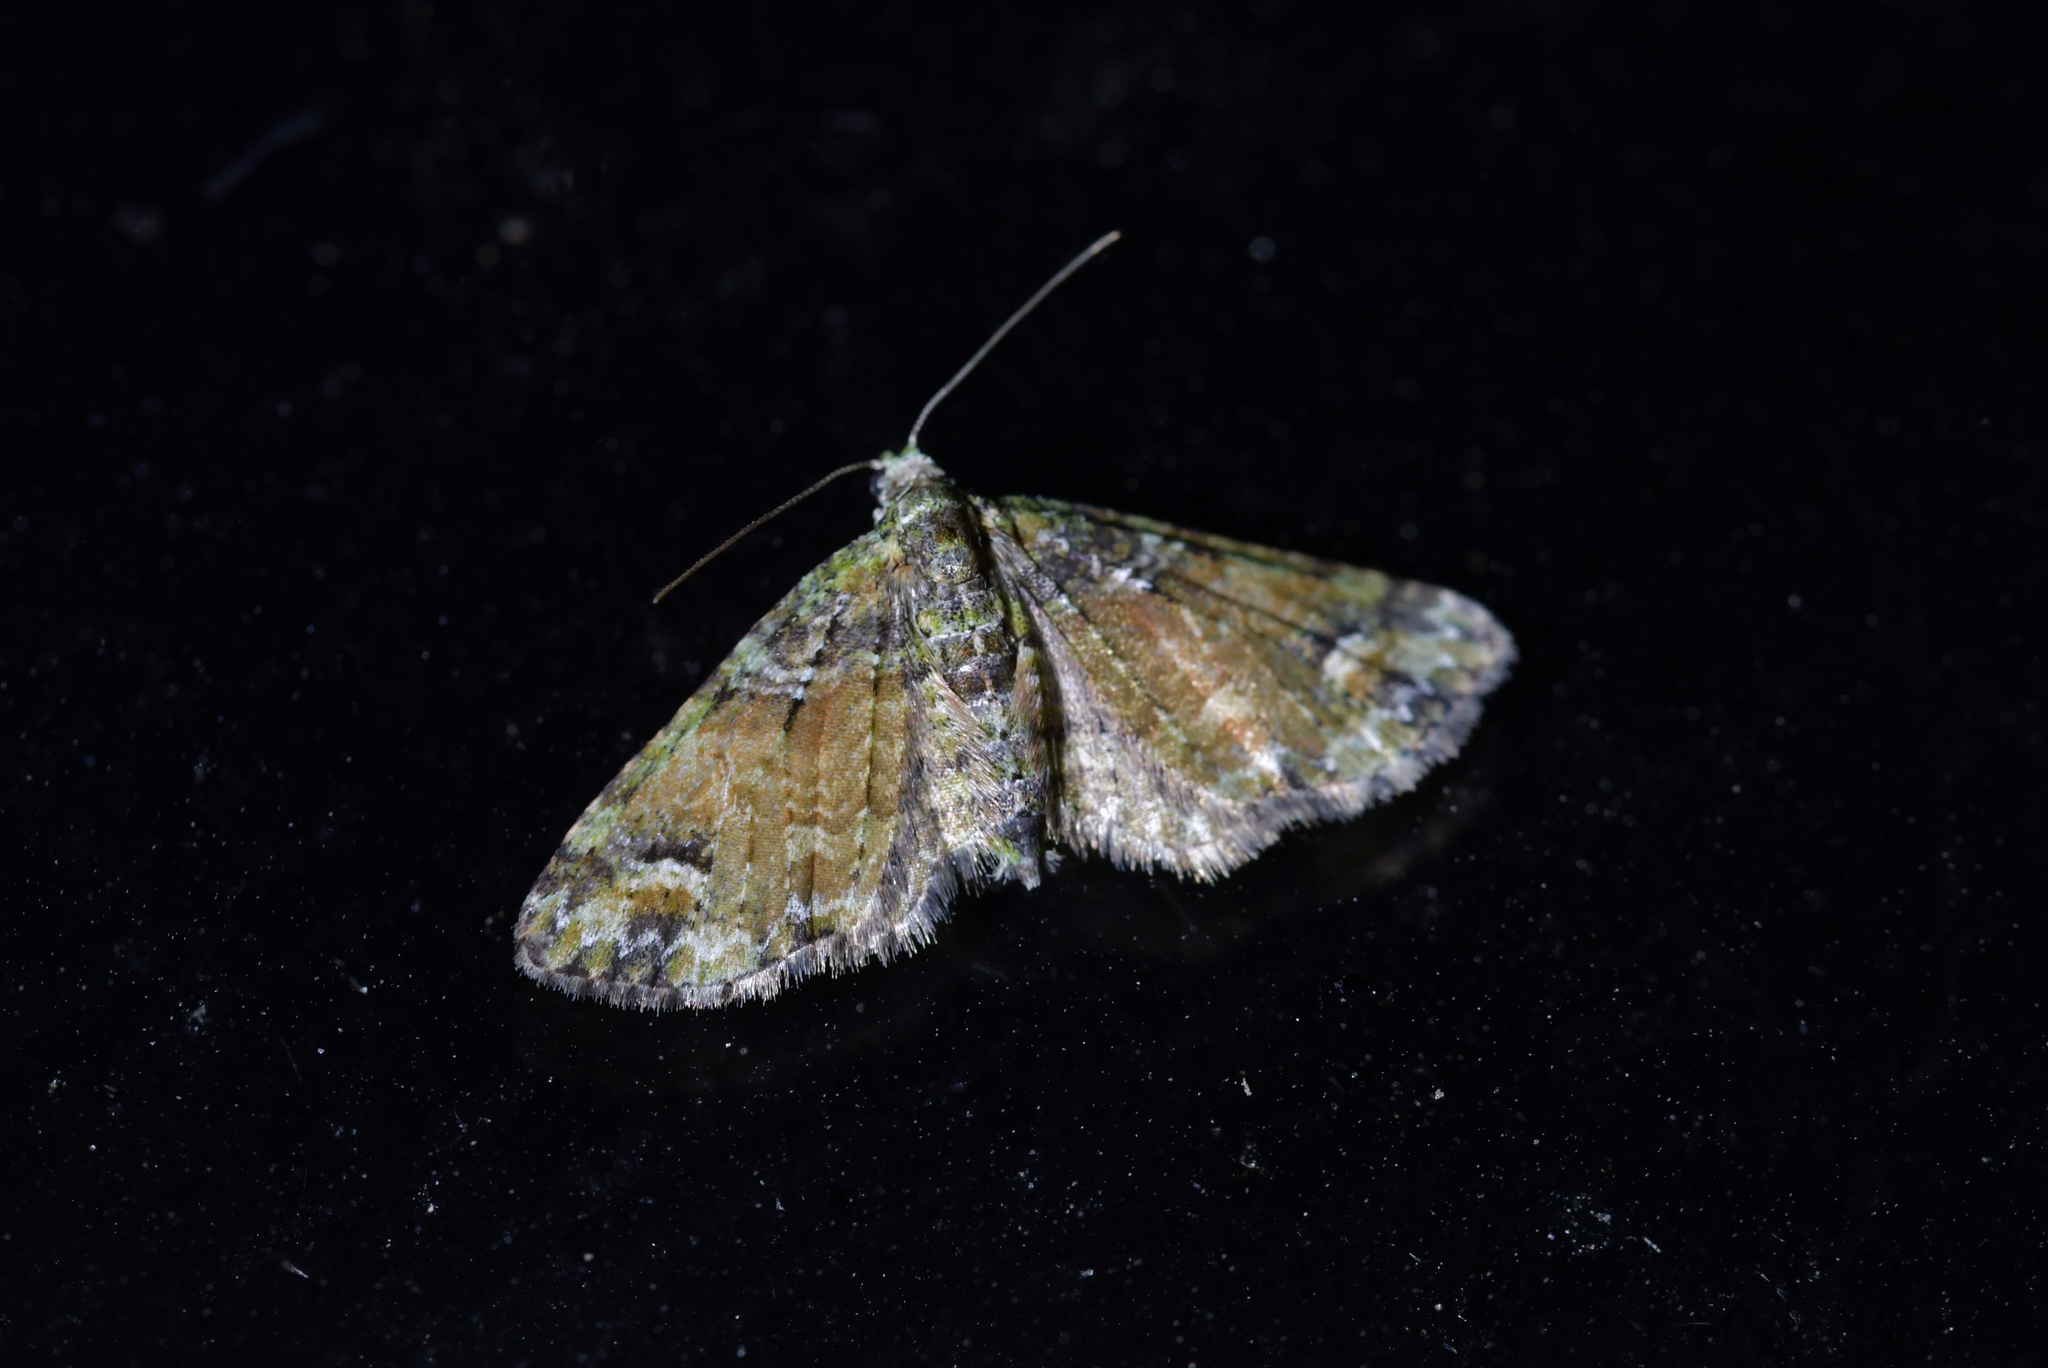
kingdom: Animalia
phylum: Arthropoda
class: Insecta
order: Lepidoptera
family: Geometridae
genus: Idaea
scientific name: Idaea mutanda
